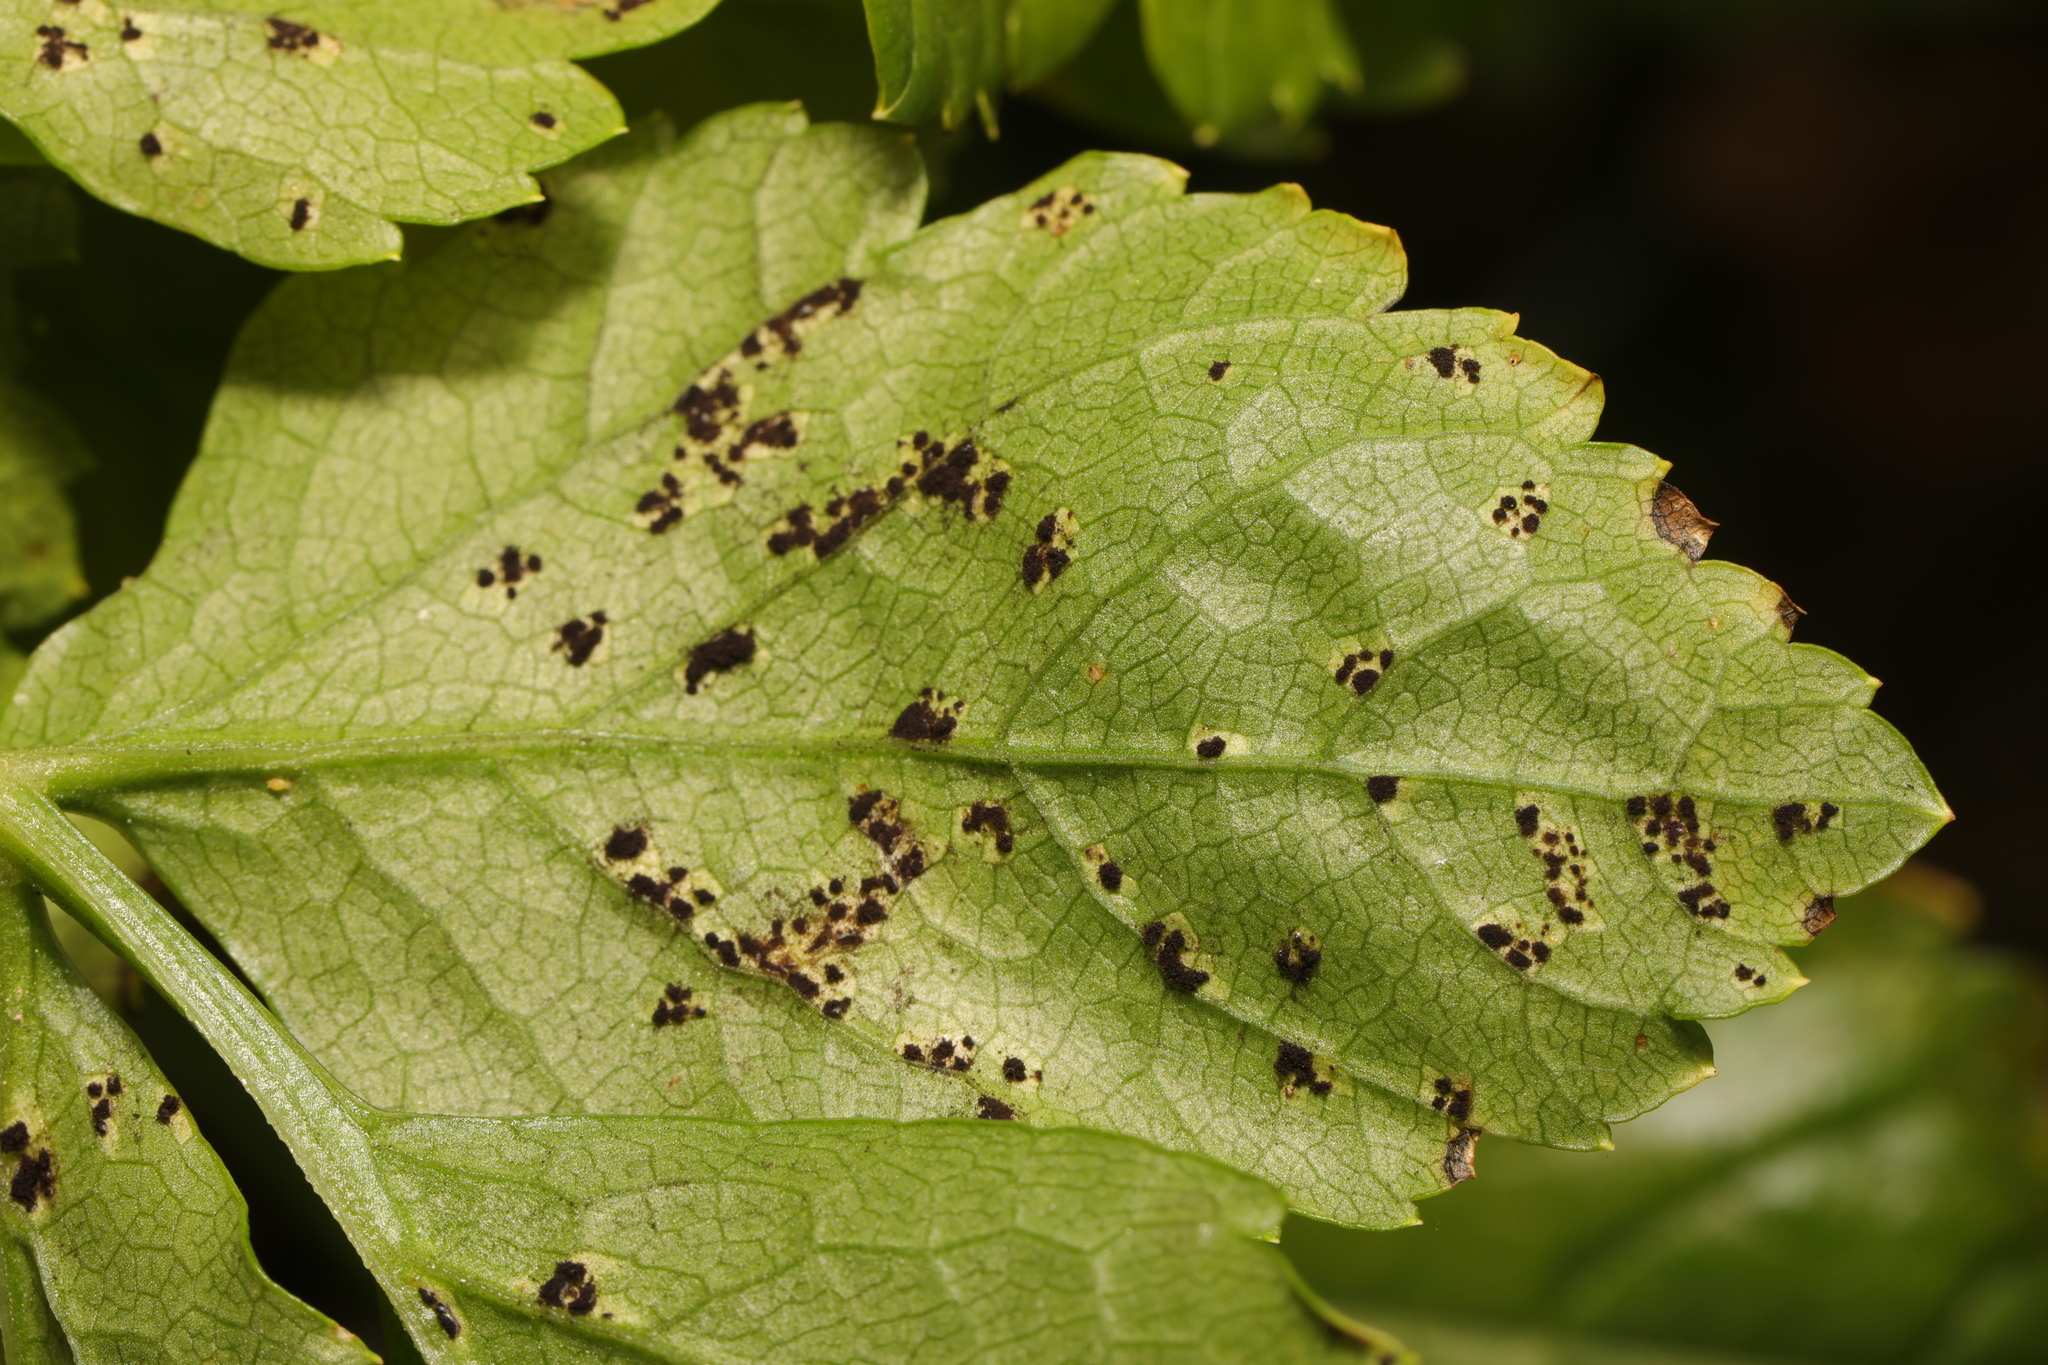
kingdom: Fungi
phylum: Basidiomycota
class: Pucciniomycetes
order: Pucciniales
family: Pucciniaceae
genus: Puccinia
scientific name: Puccinia smyrnii
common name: Alexanders rust
